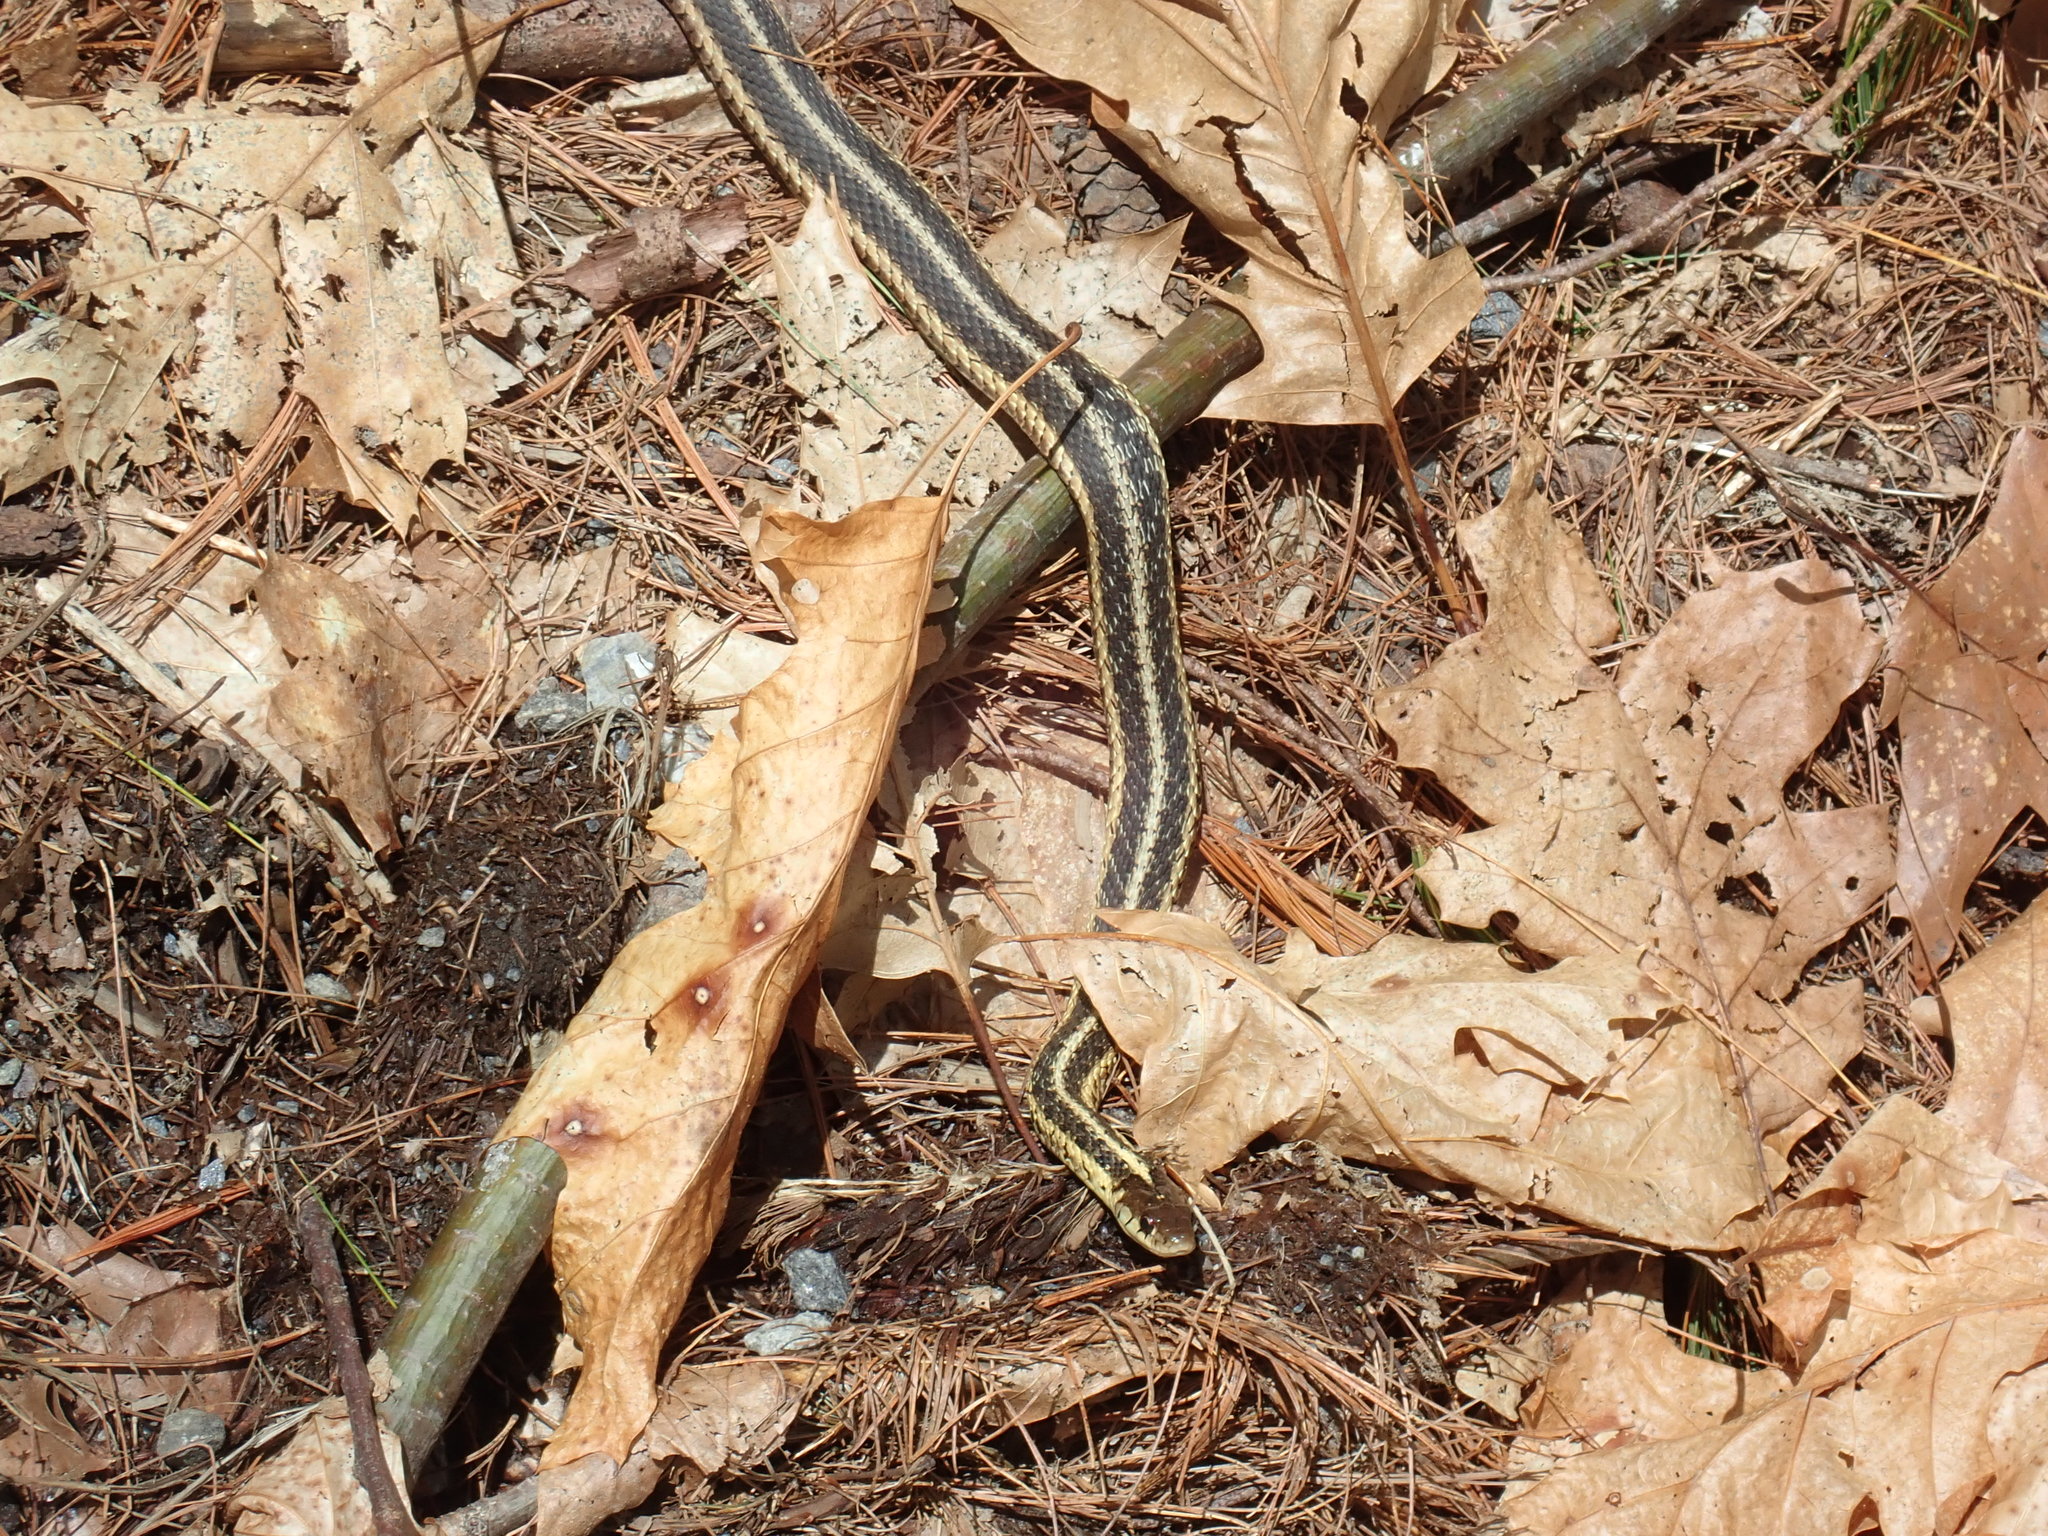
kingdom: Animalia
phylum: Chordata
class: Squamata
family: Colubridae
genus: Thamnophis
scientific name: Thamnophis sirtalis
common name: Common garter snake
